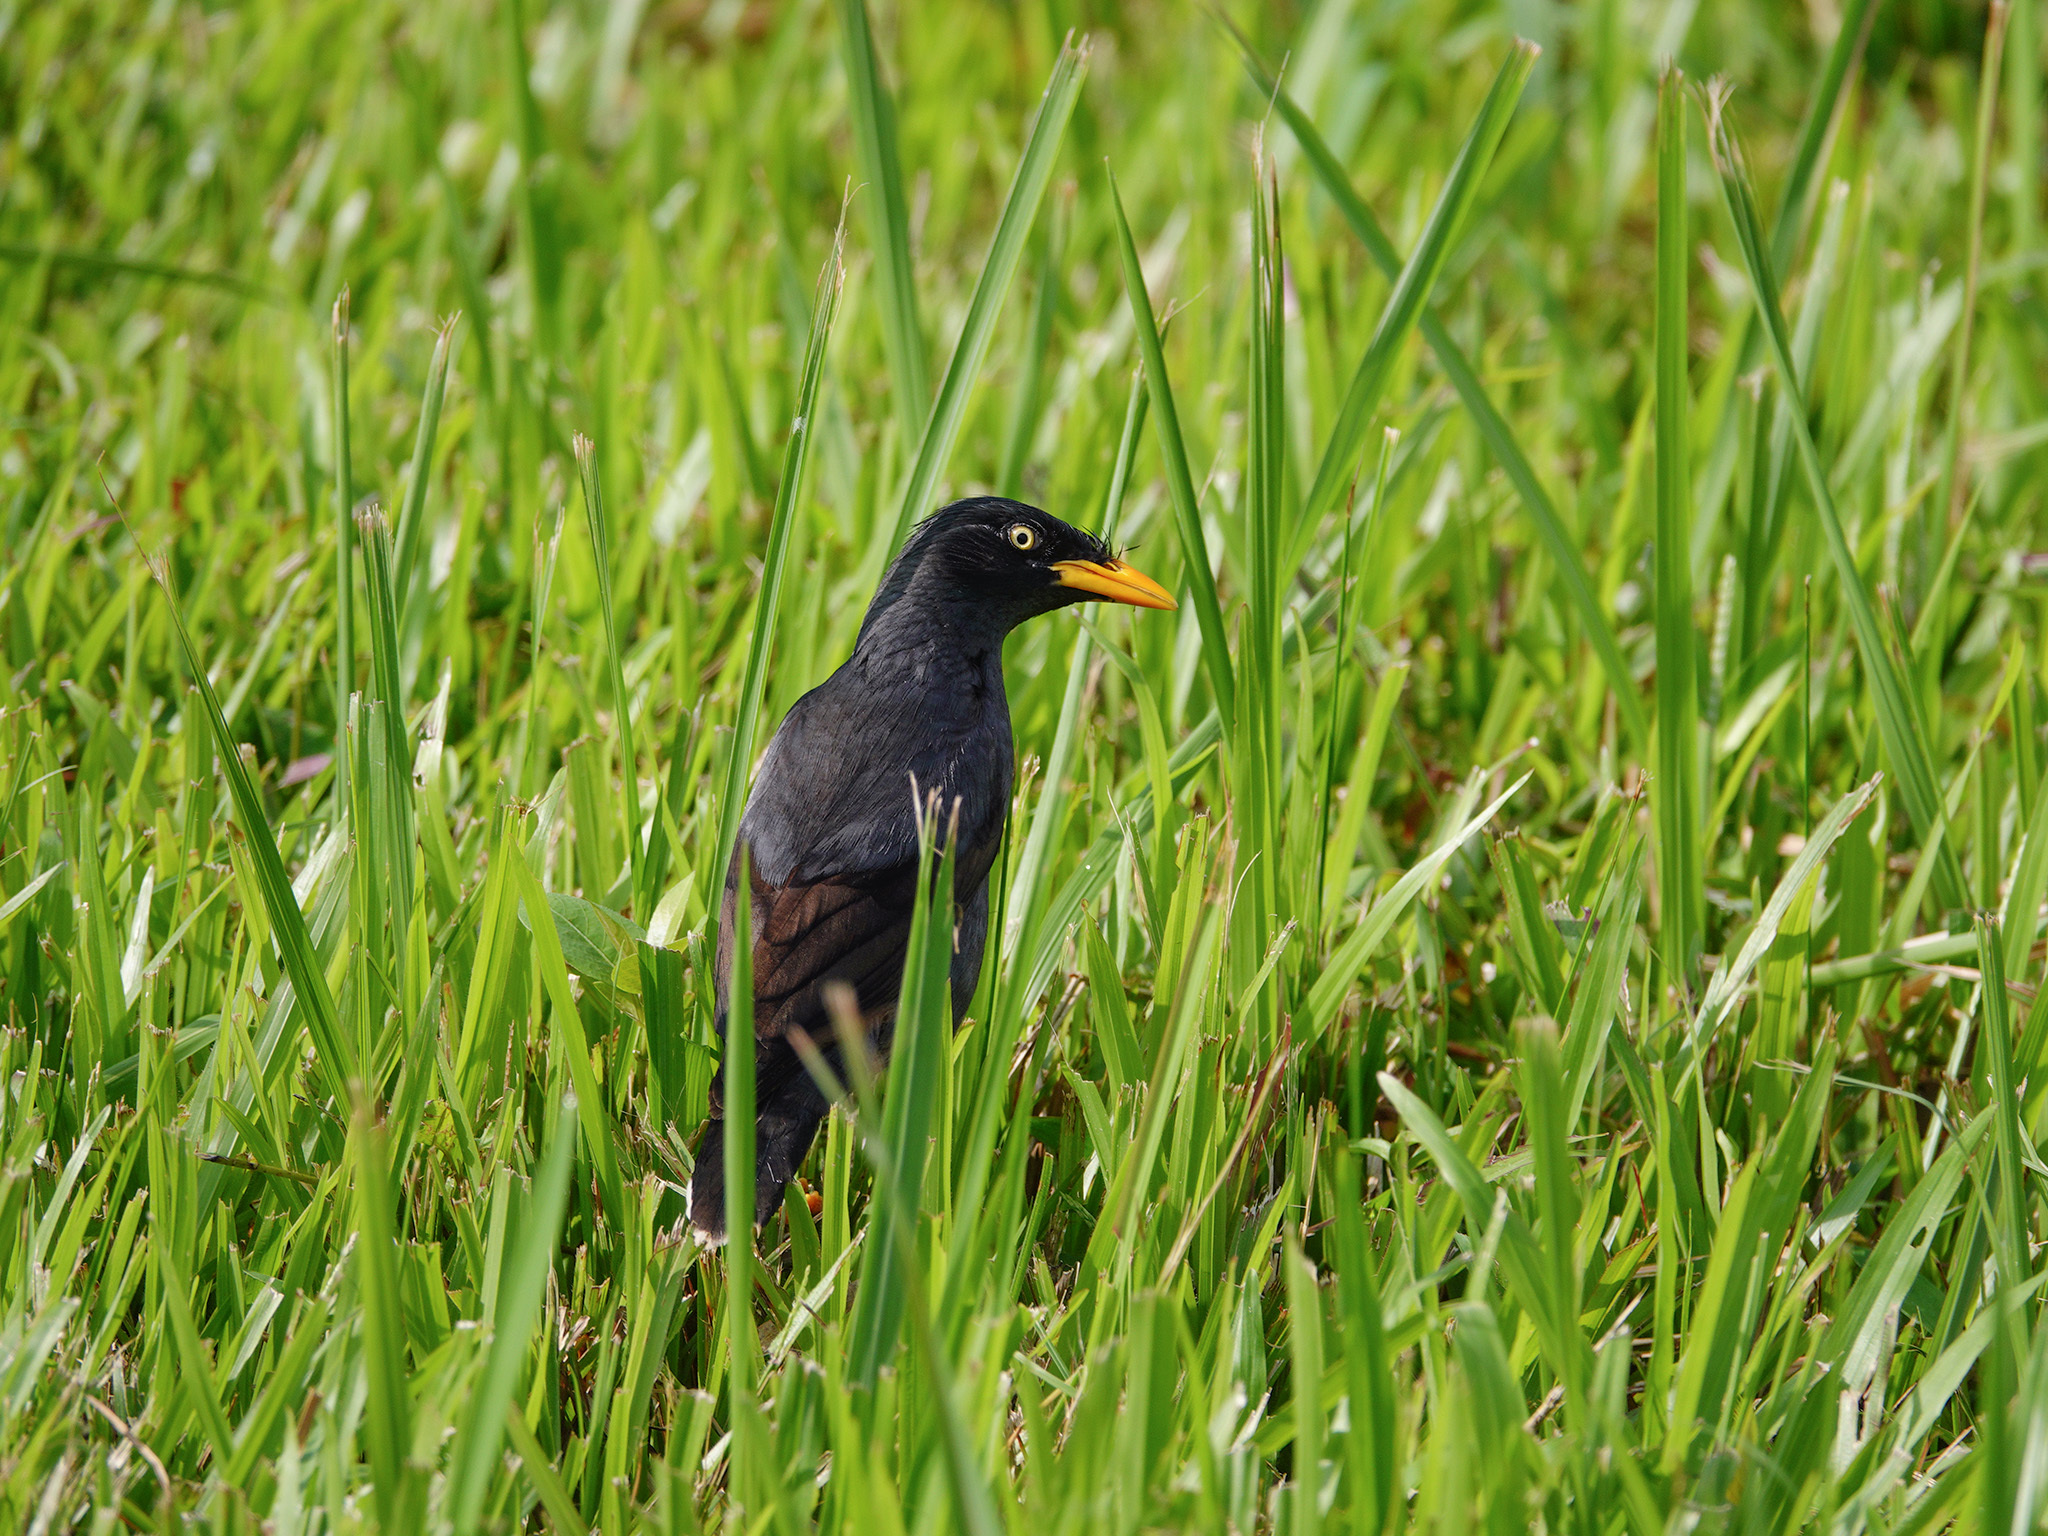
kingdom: Animalia
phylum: Chordata
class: Aves
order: Passeriformes
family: Sturnidae
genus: Acridotheres
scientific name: Acridotheres javanicus
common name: Javan myna
